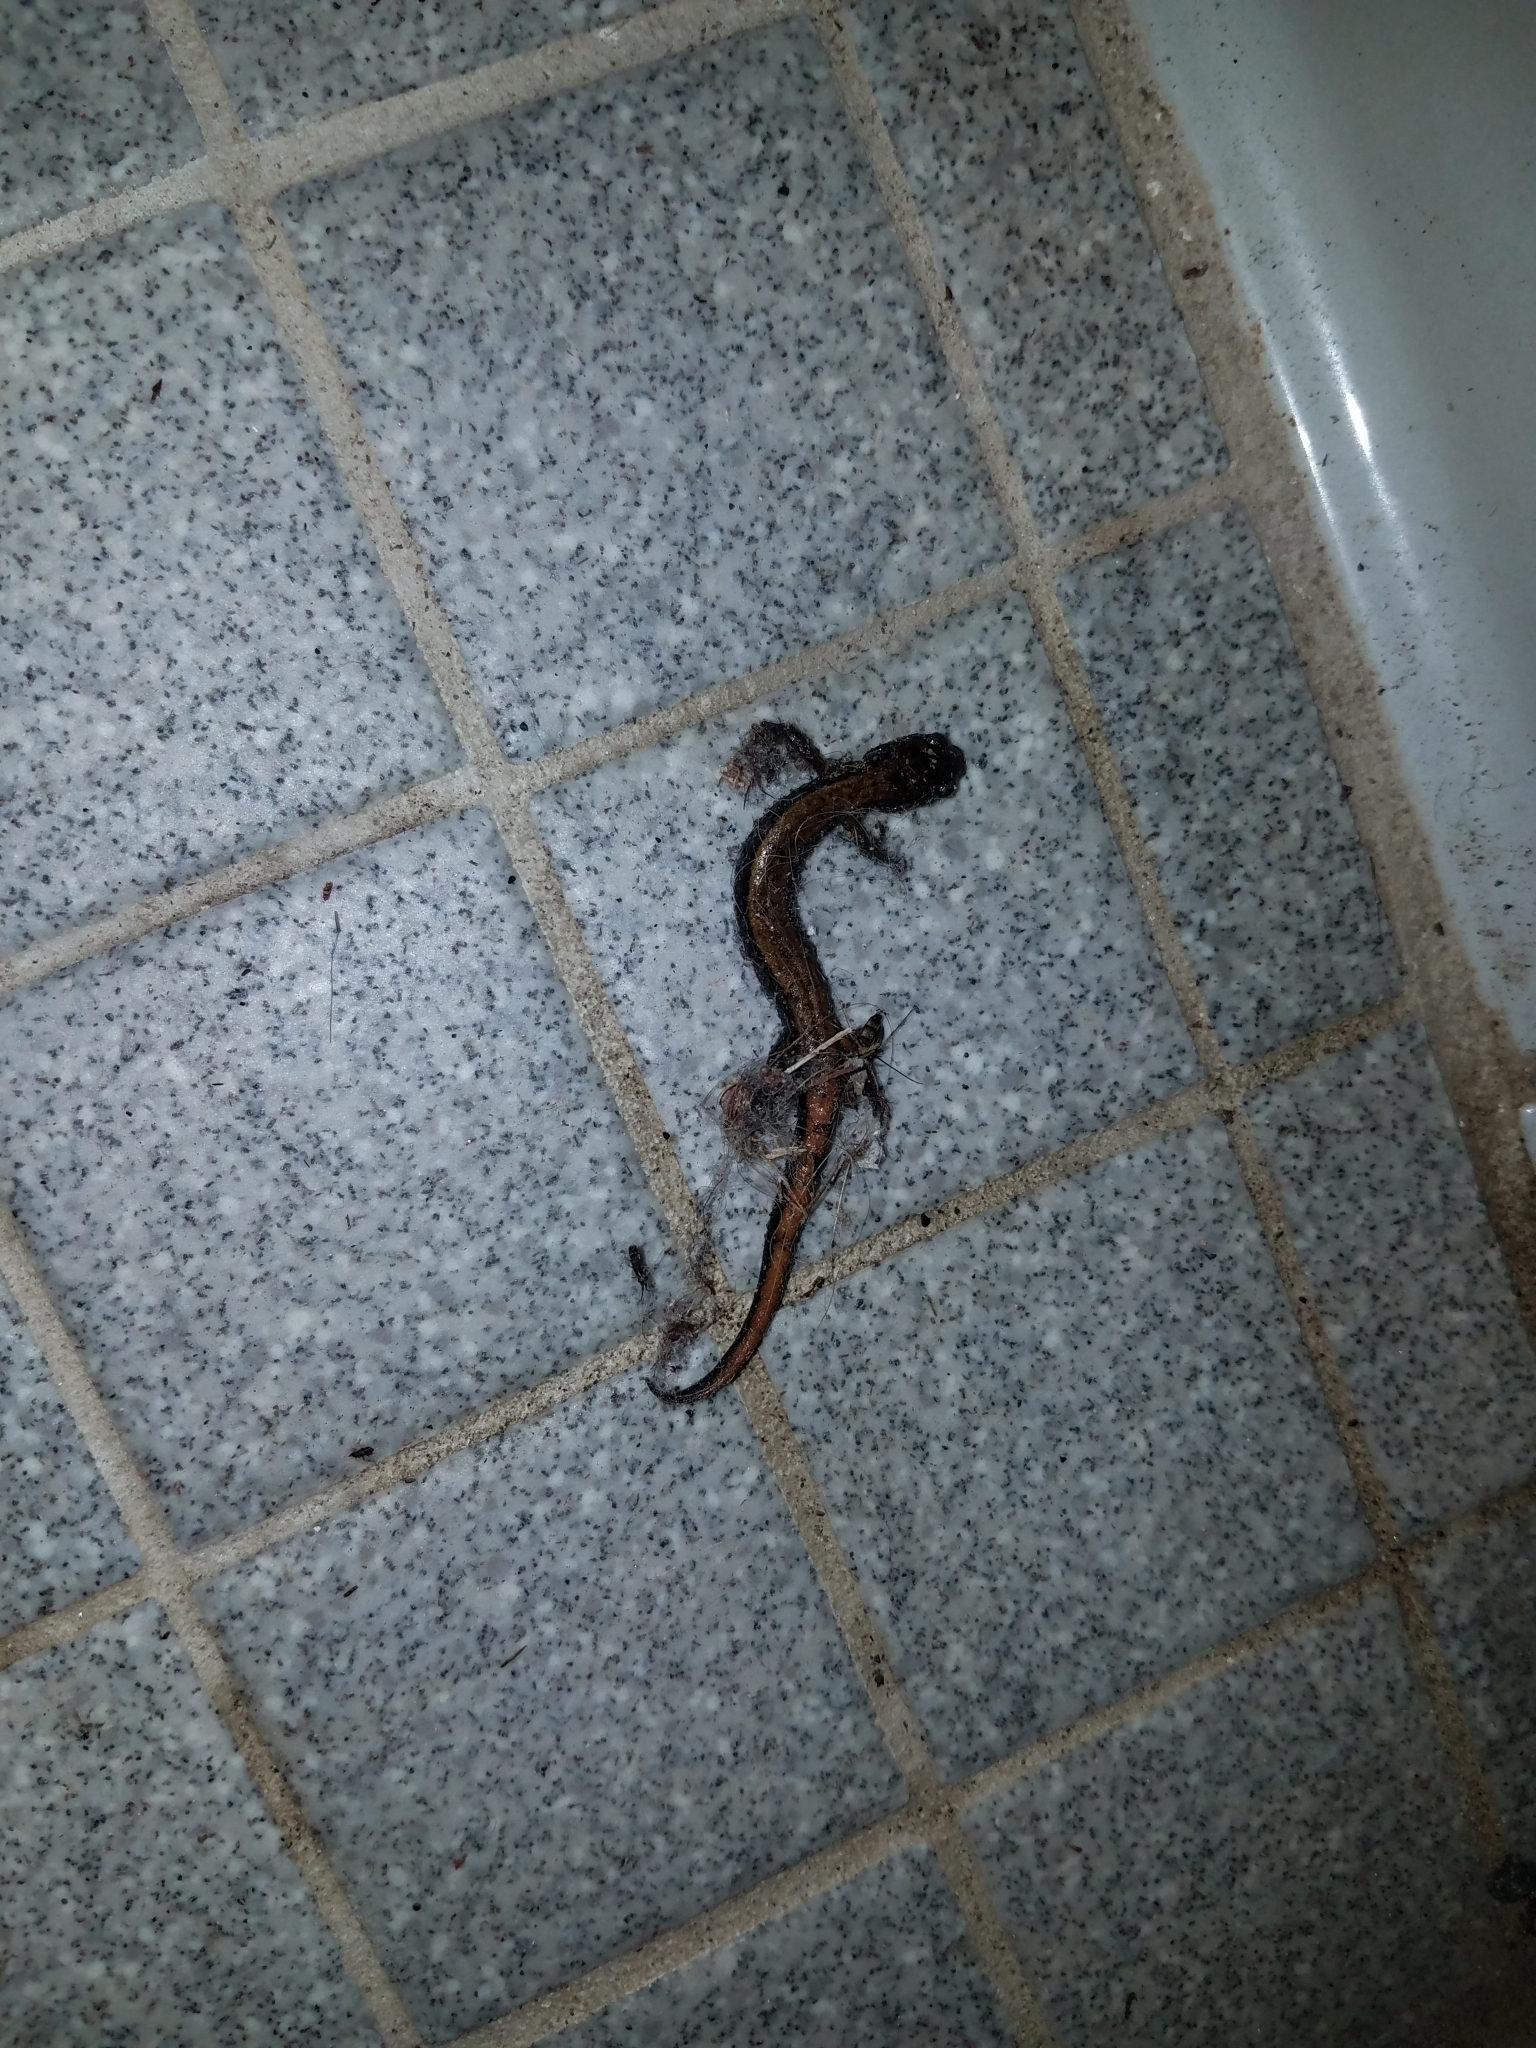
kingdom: Animalia
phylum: Chordata
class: Amphibia
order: Caudata
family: Plethodontidae
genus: Plethodon
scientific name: Plethodon vehiculum
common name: Western red-backed salamander
